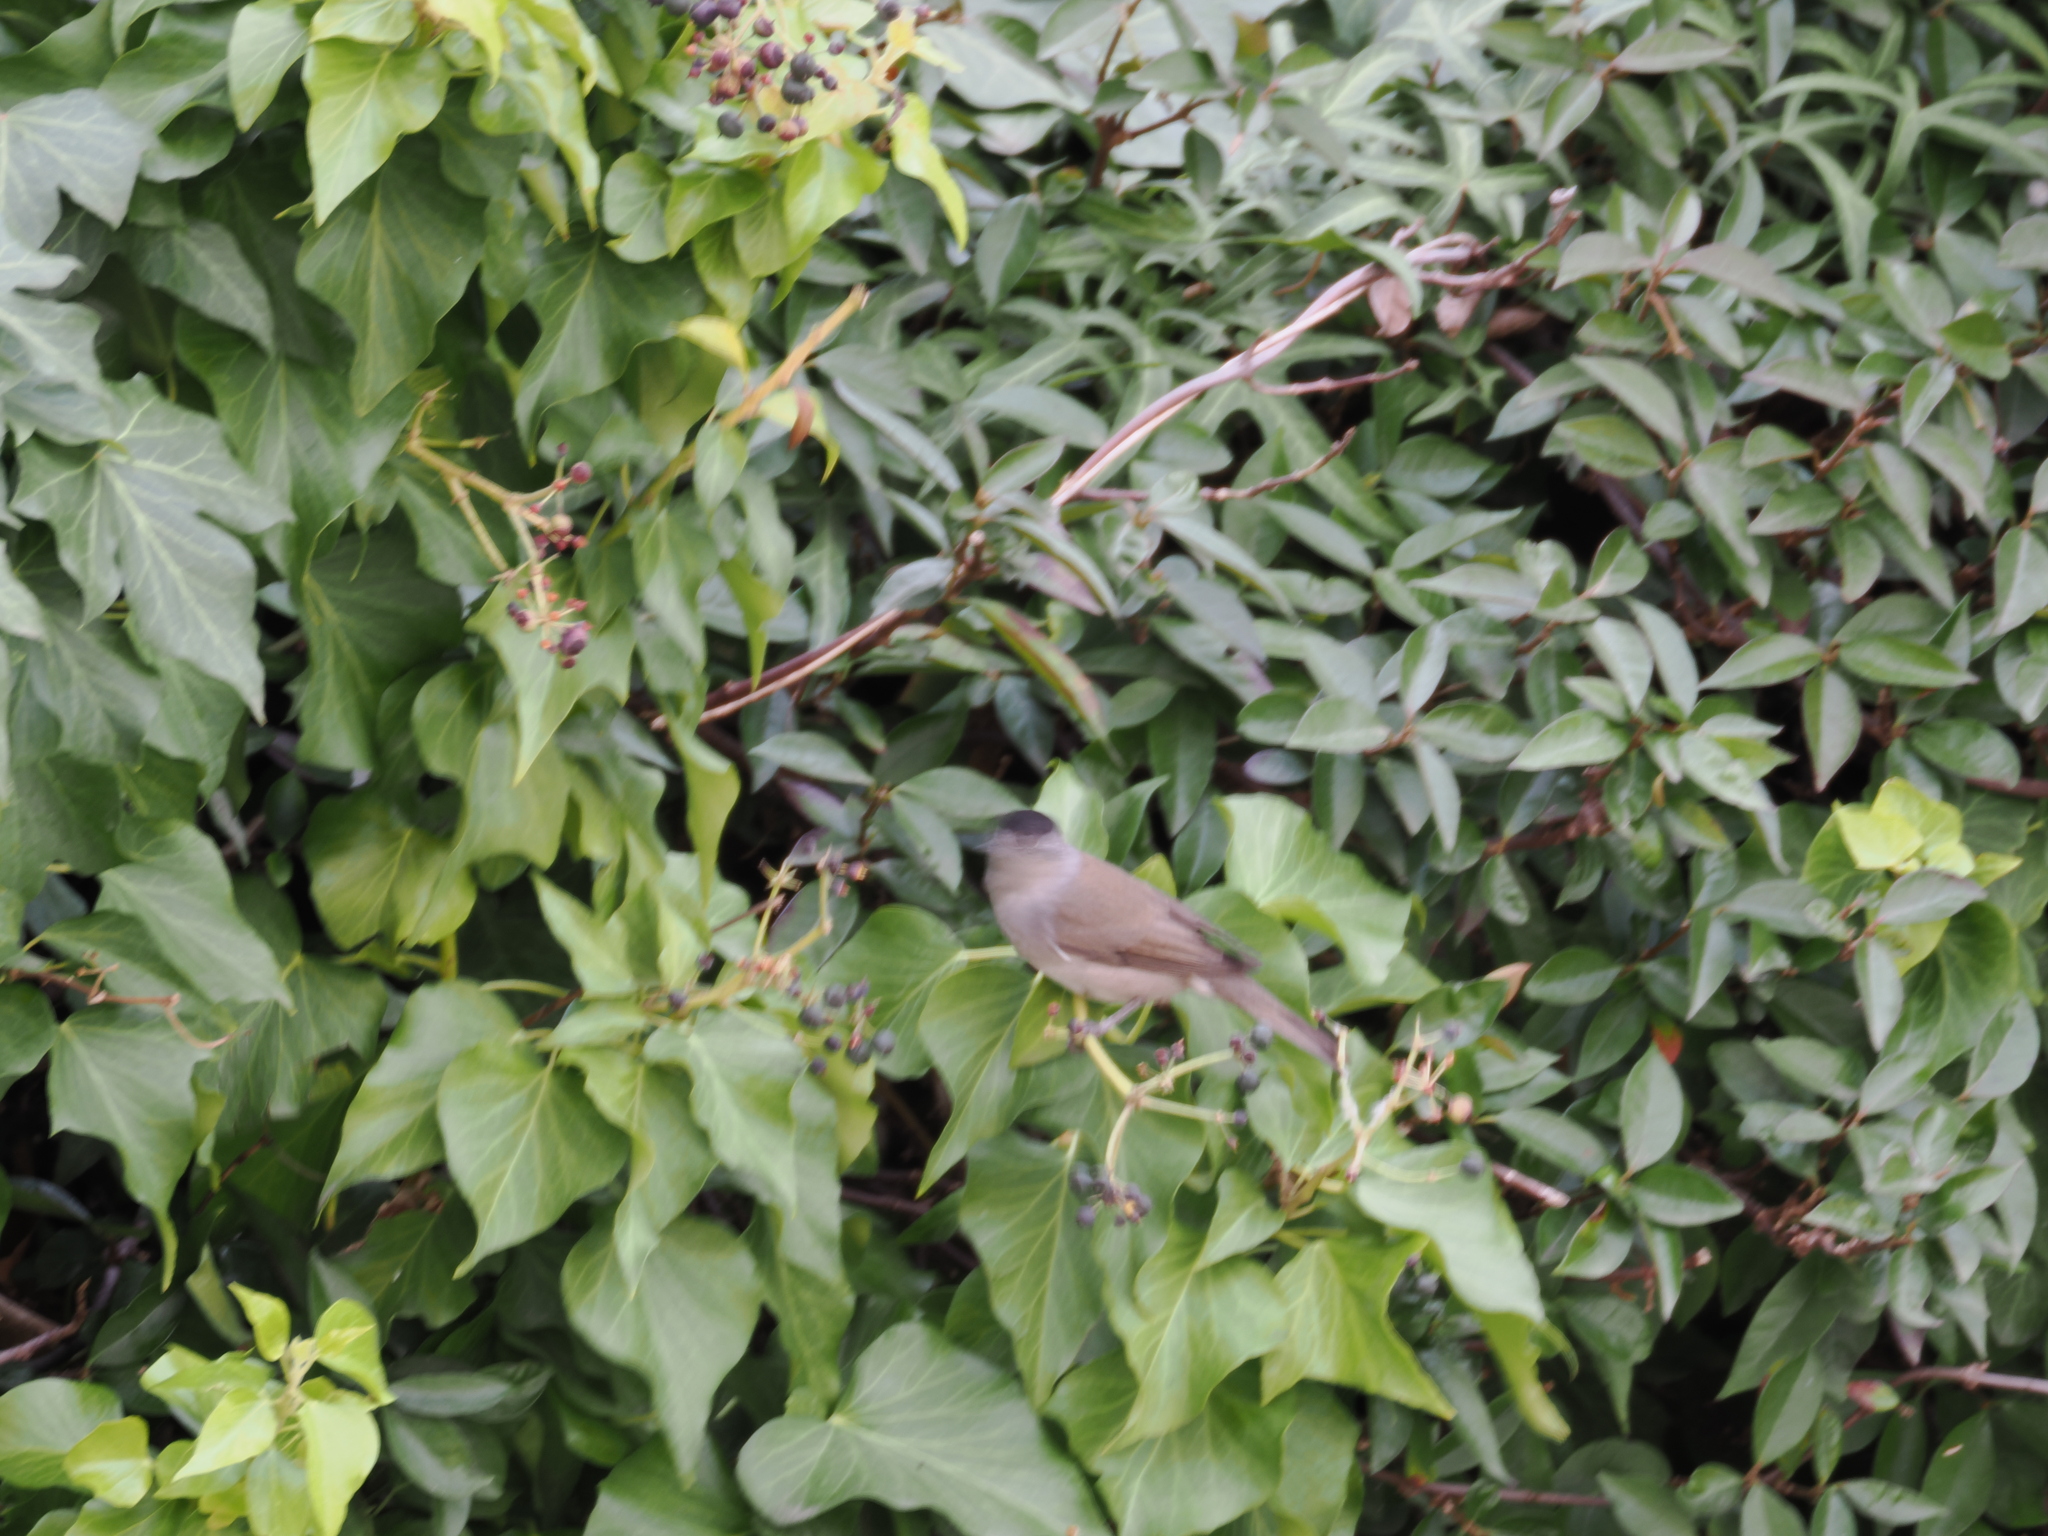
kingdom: Animalia
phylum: Chordata
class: Aves
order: Passeriformes
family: Sylviidae
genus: Sylvia
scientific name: Sylvia atricapilla
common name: Eurasian blackcap
